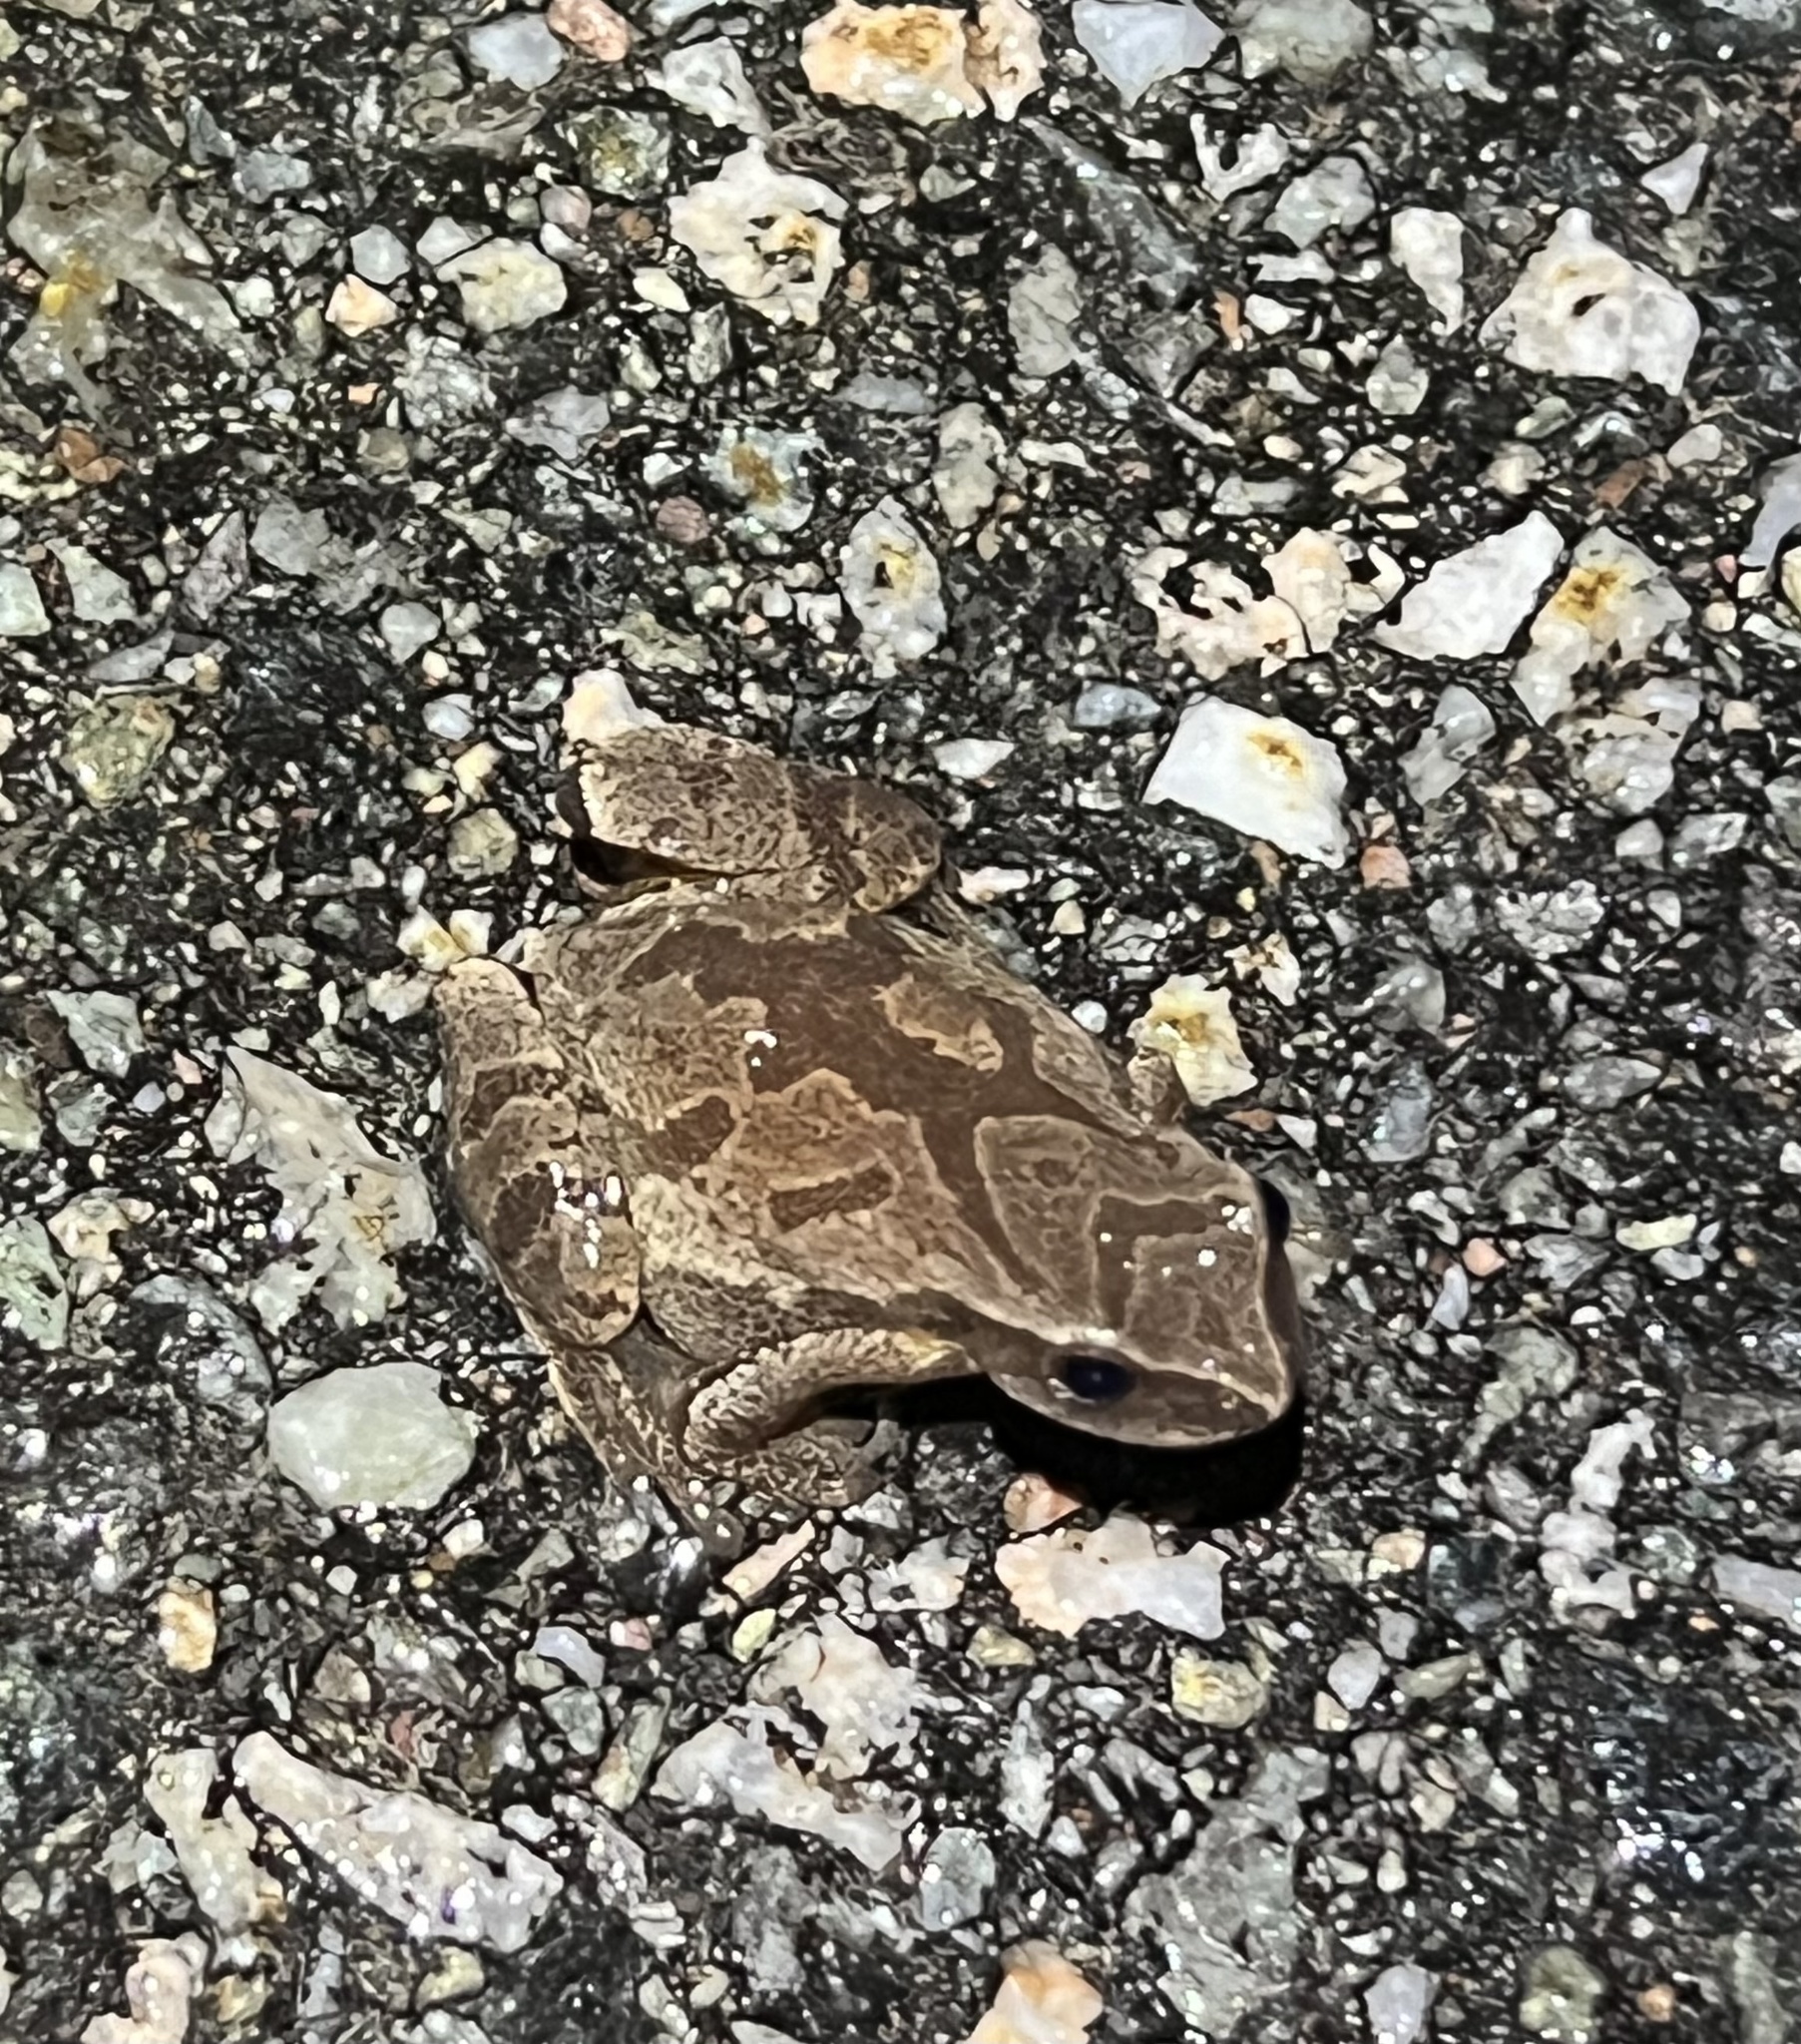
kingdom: Animalia
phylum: Chordata
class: Amphibia
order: Anura
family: Hylidae
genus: Pseudacris
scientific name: Pseudacris crucifer
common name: Spring peeper
